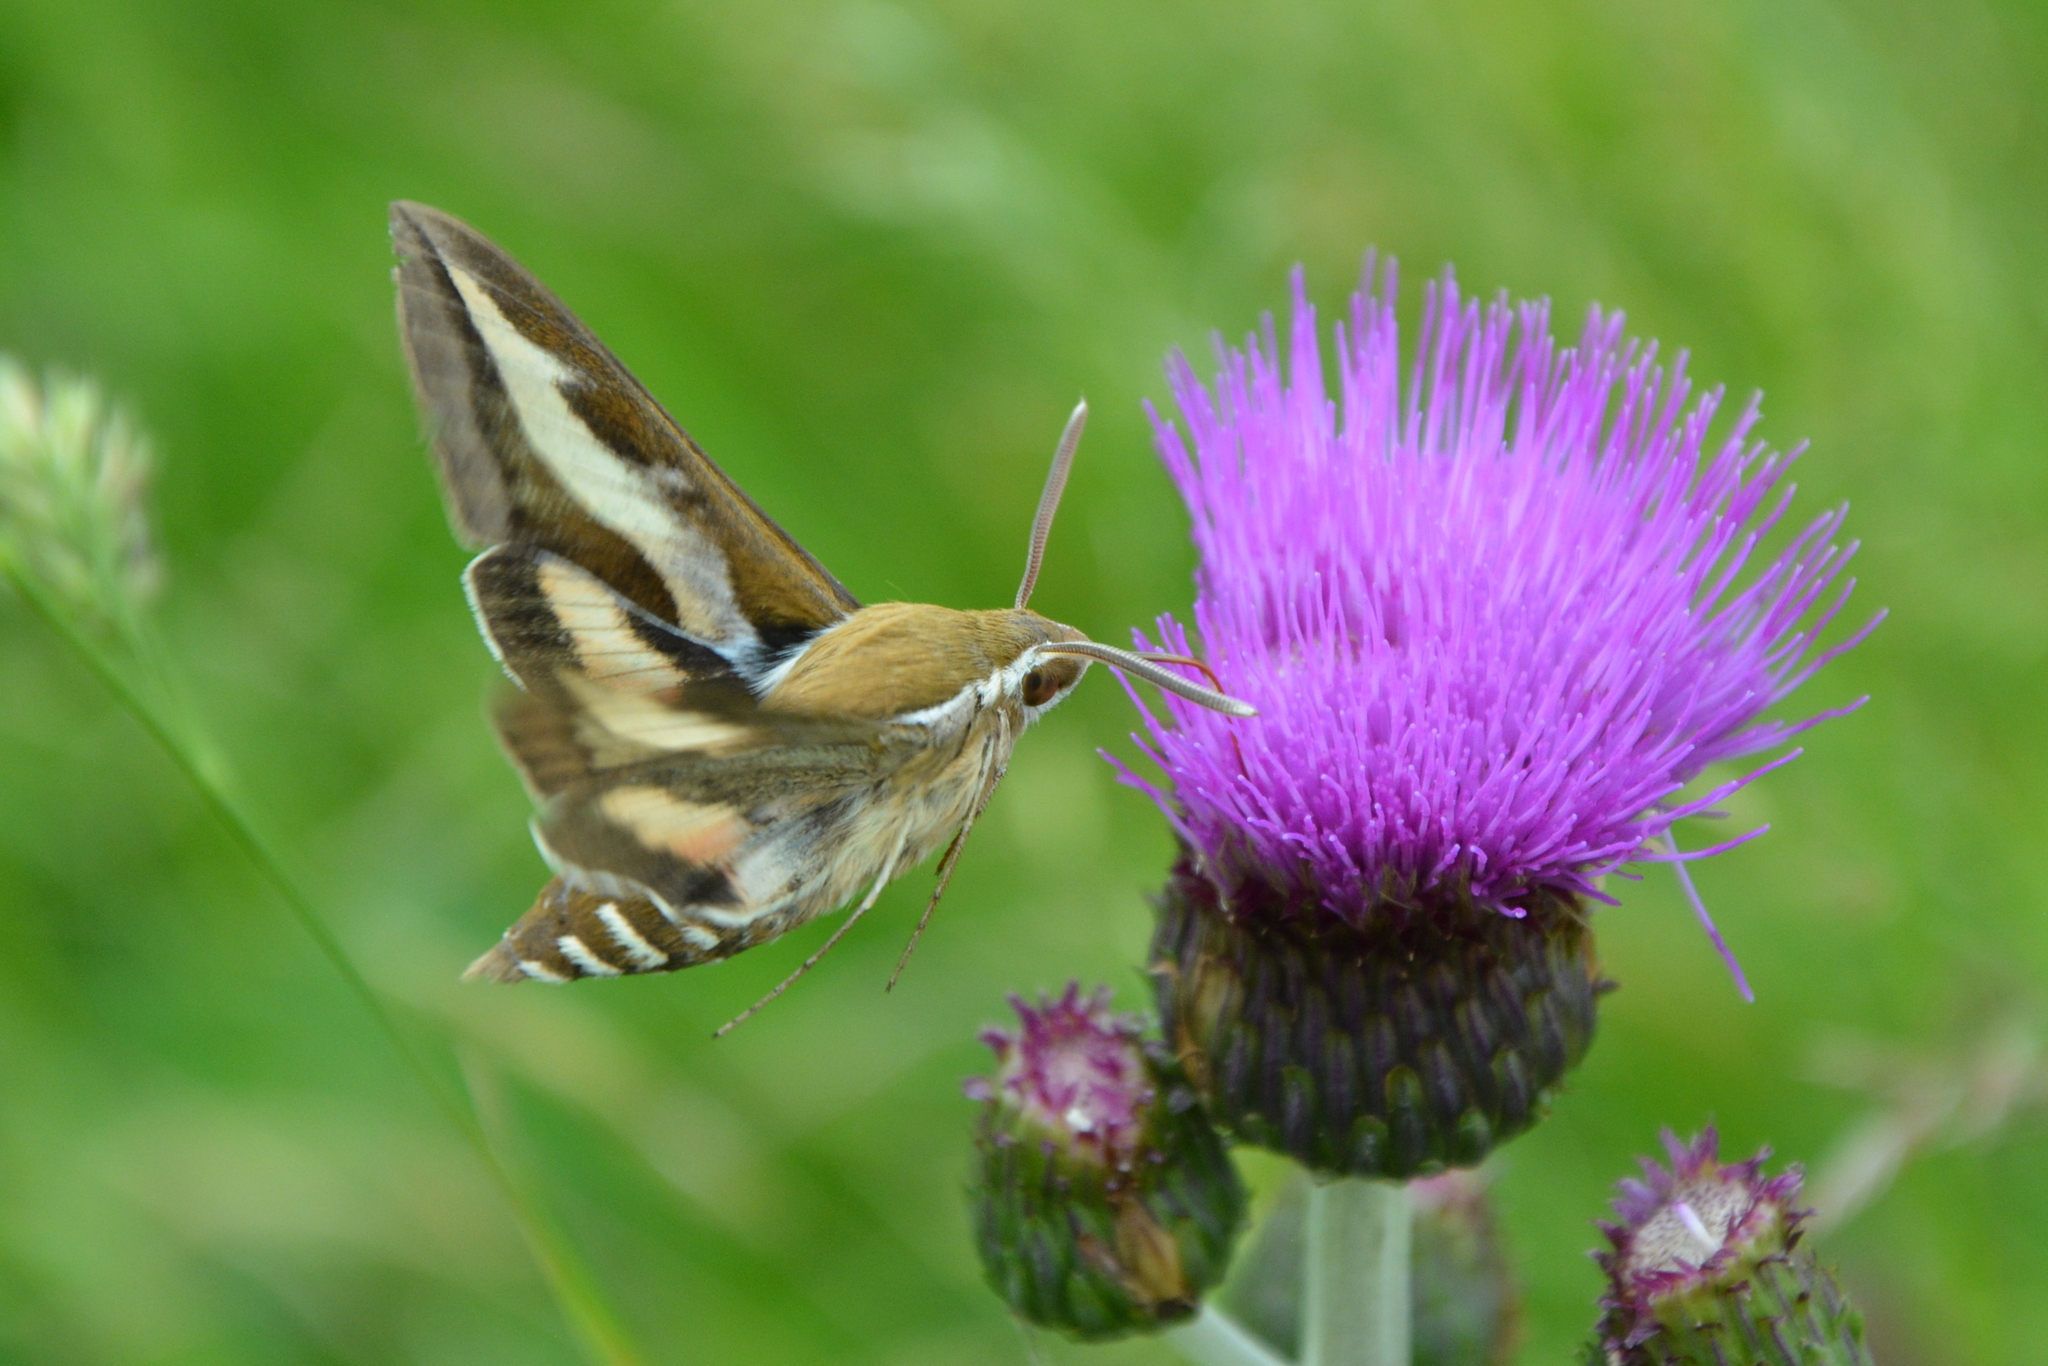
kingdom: Animalia
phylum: Arthropoda
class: Insecta
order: Lepidoptera
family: Sphingidae
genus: Hyles
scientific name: Hyles gallii
